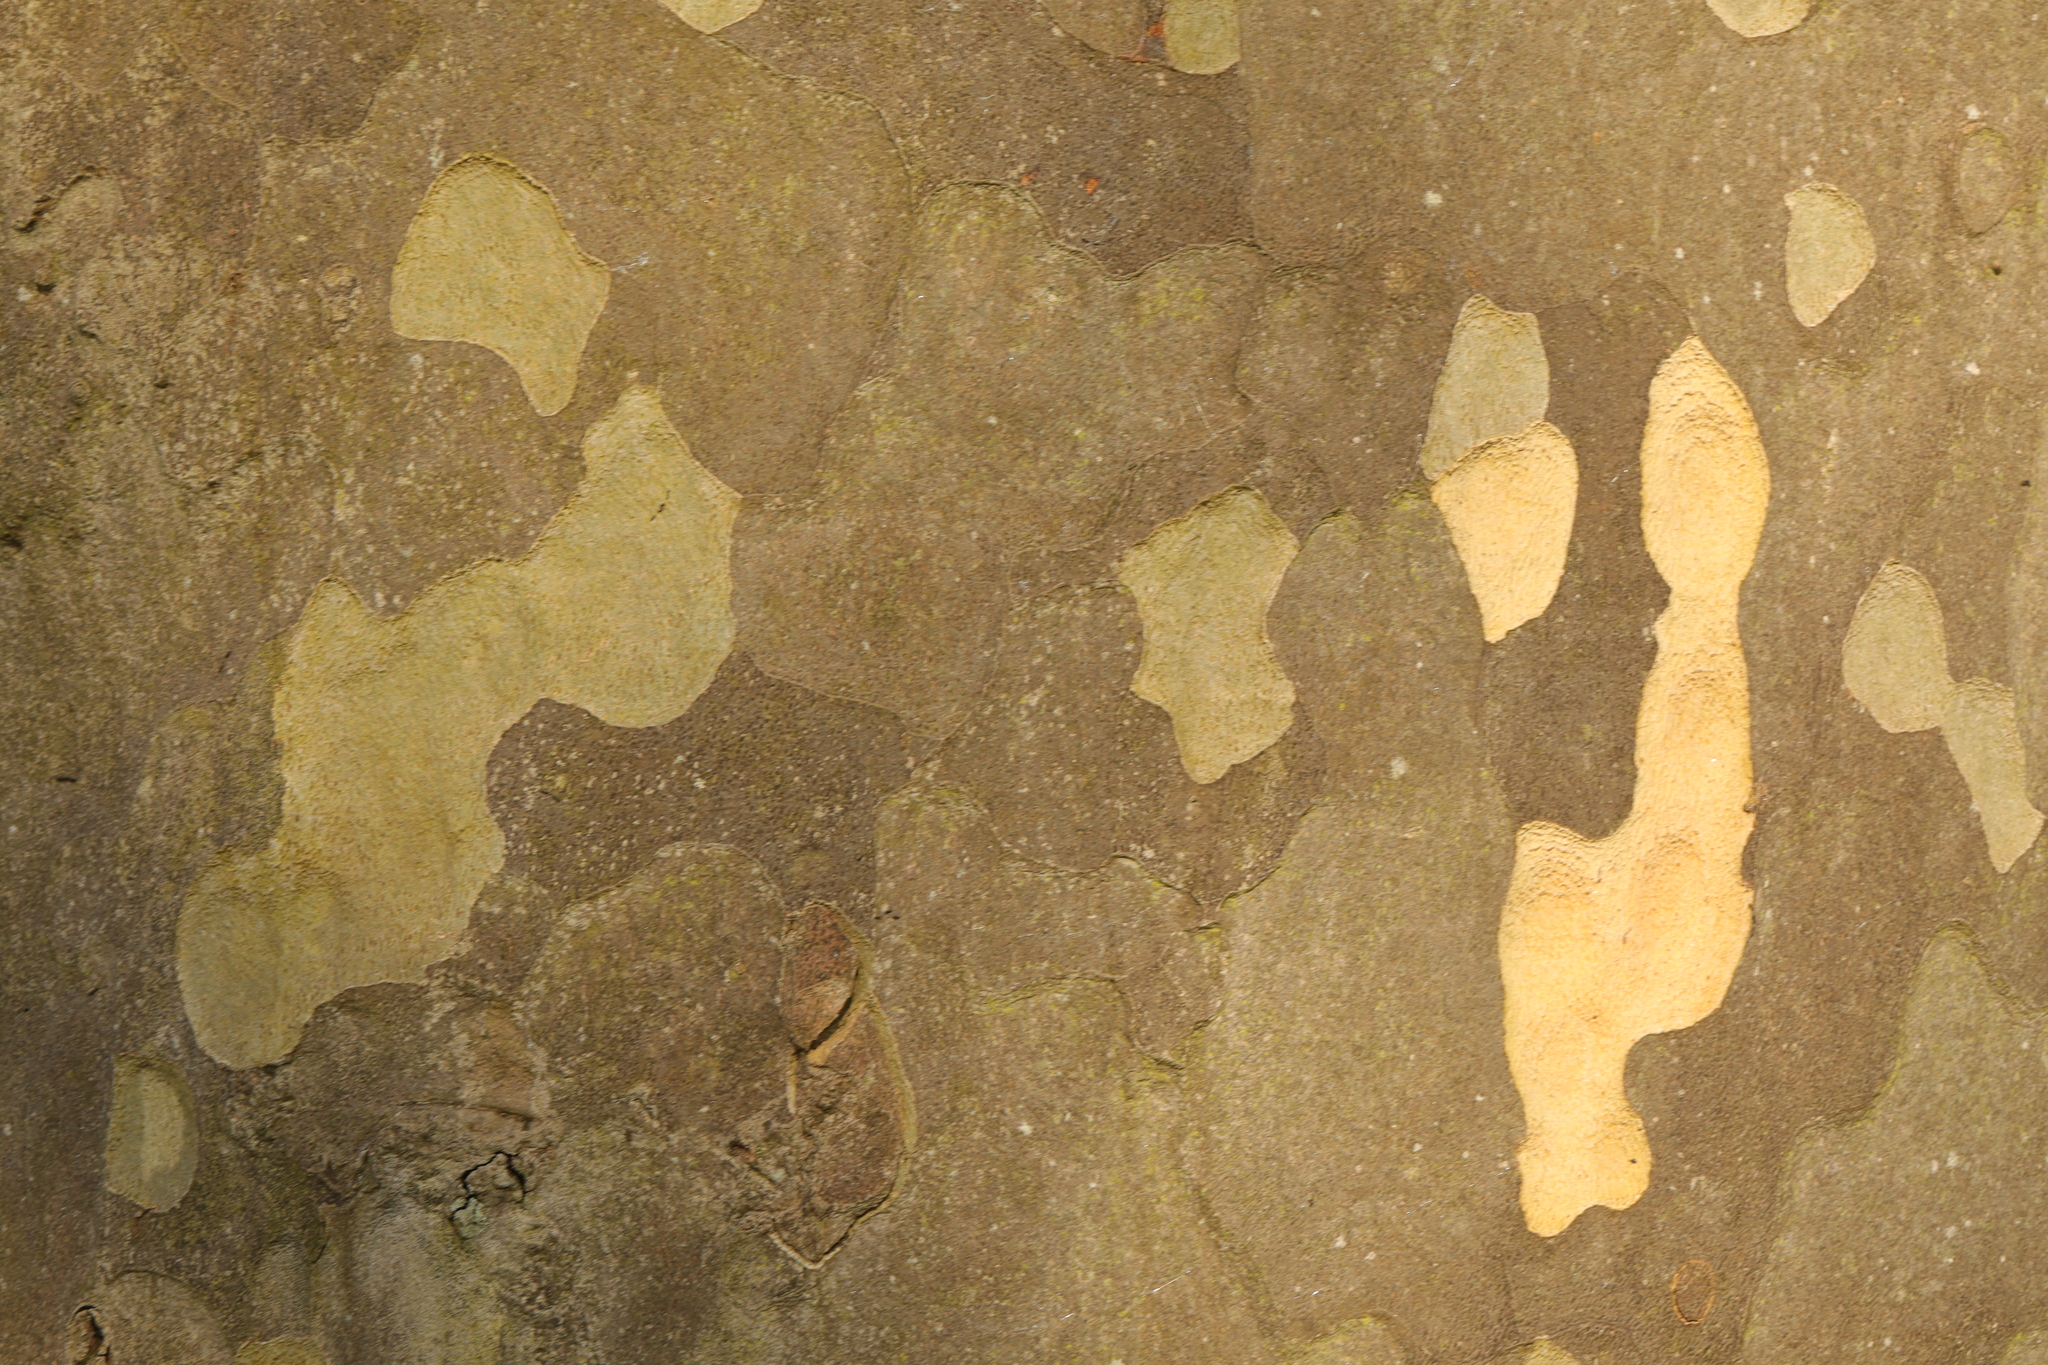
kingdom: Plantae
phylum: Tracheophyta
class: Magnoliopsida
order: Proteales
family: Platanaceae
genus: Platanus
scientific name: Platanus hispanica
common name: London plane
